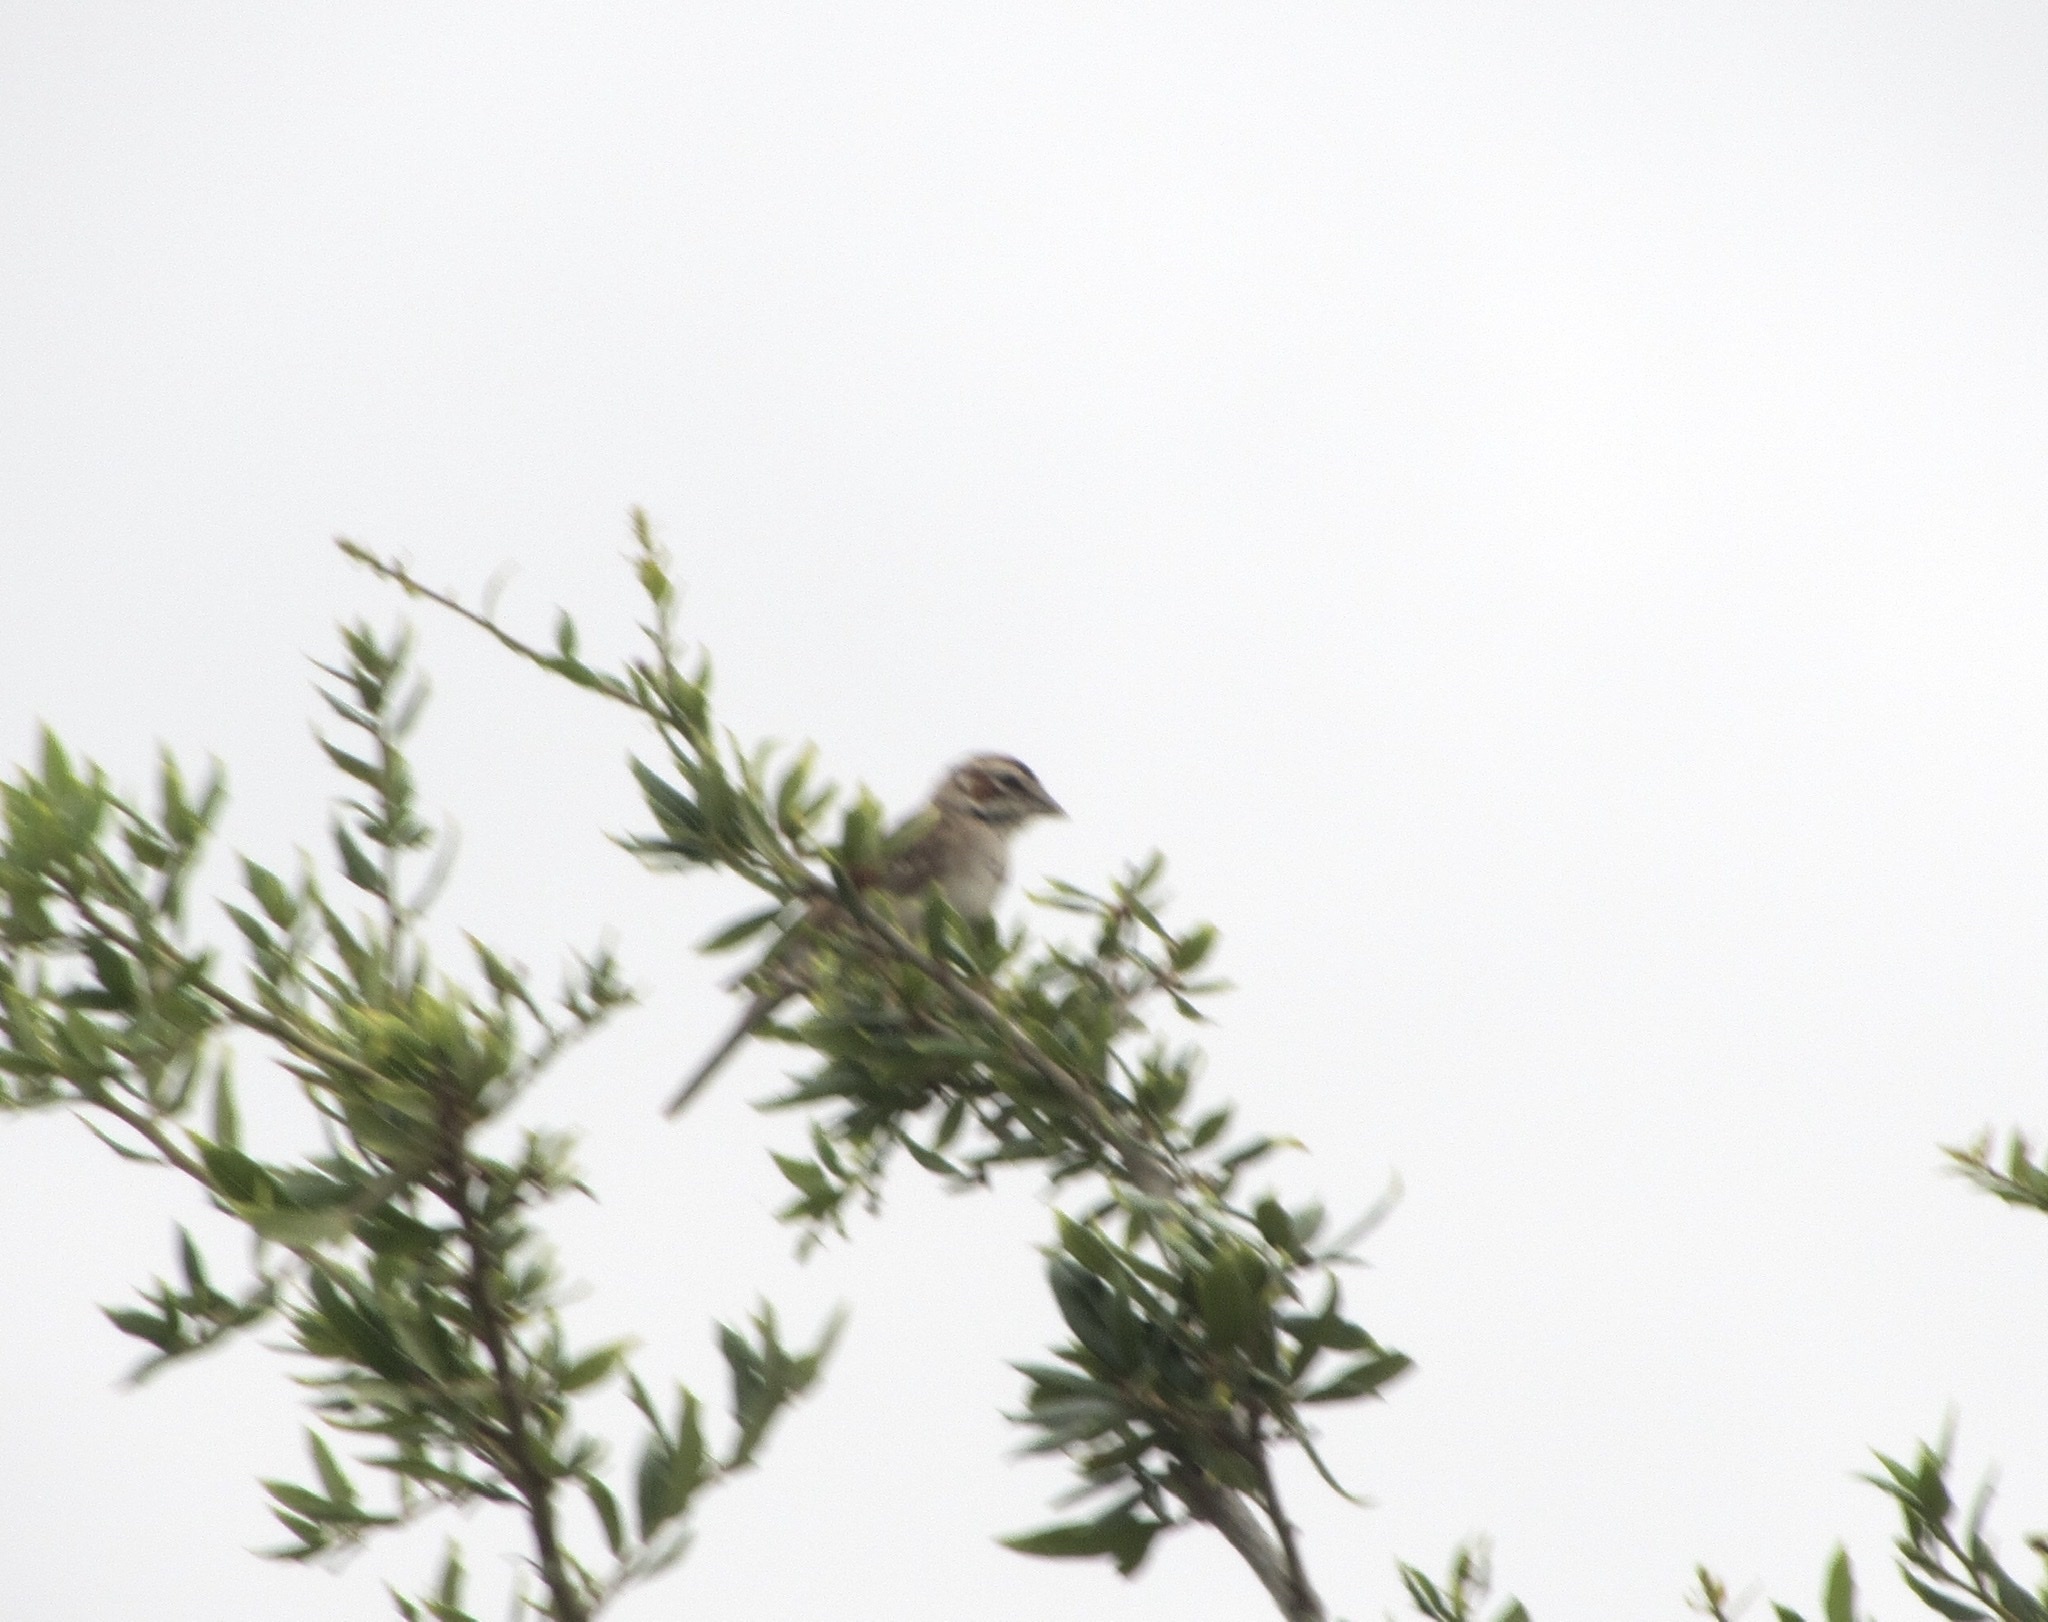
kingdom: Animalia
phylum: Chordata
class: Aves
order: Passeriformes
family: Passerellidae
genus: Chondestes
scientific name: Chondestes grammacus
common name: Lark sparrow
